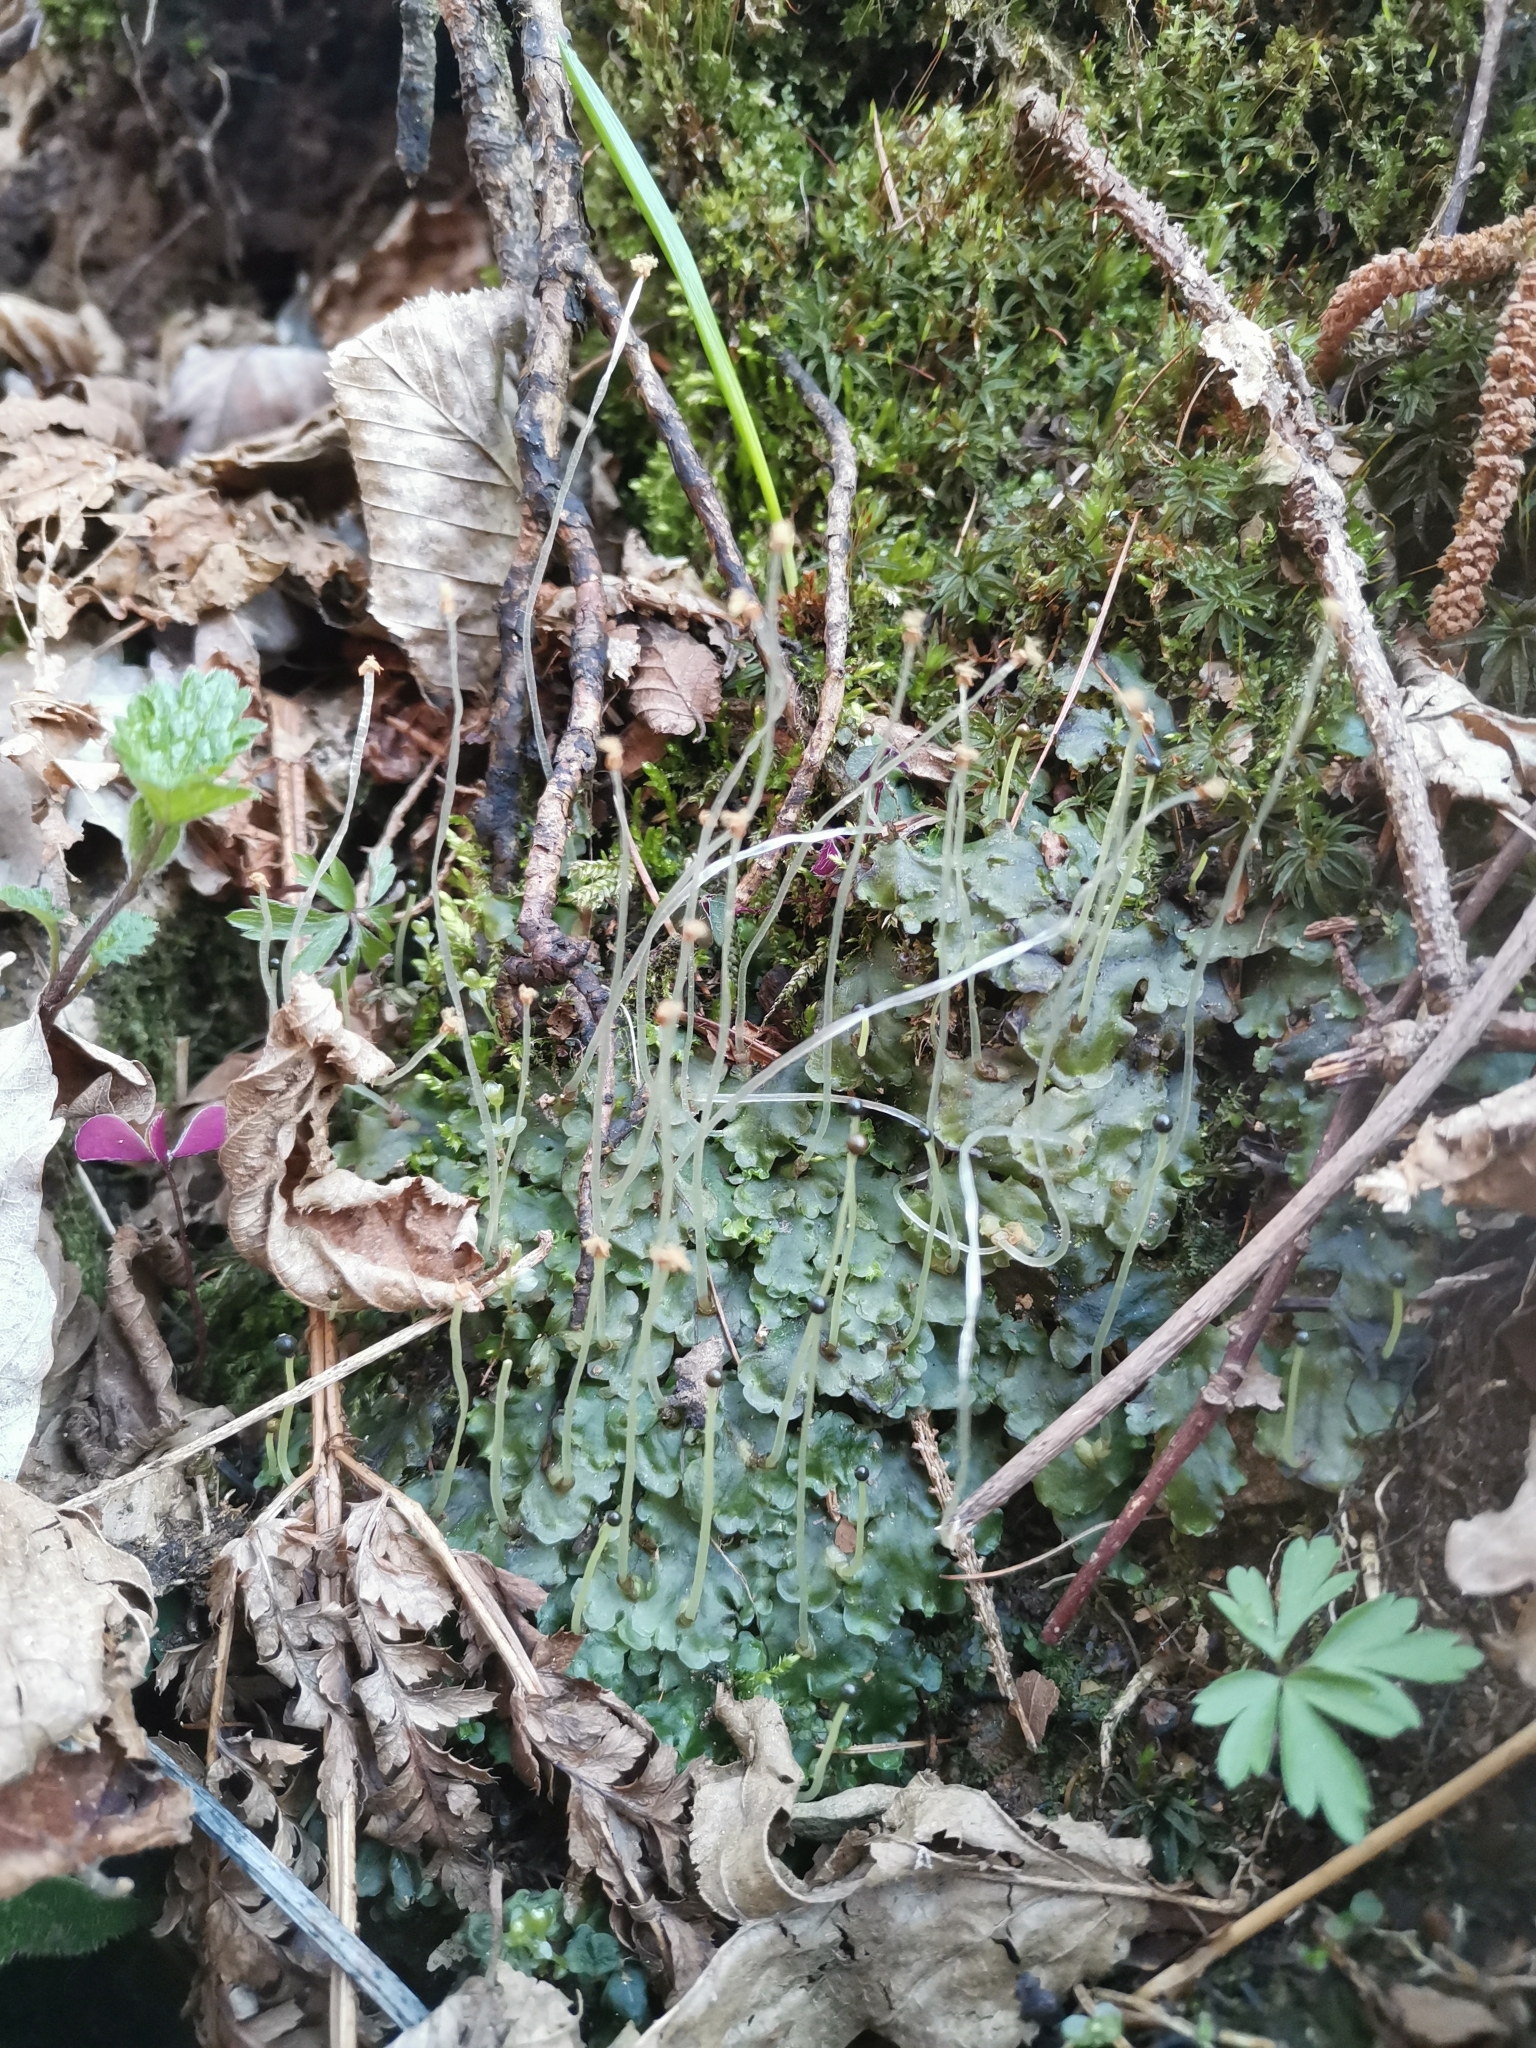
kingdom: Plantae
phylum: Marchantiophyta
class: Jungermanniopsida
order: Pelliales
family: Pelliaceae
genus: Pellia
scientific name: Pellia epiphylla
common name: Common pellia
